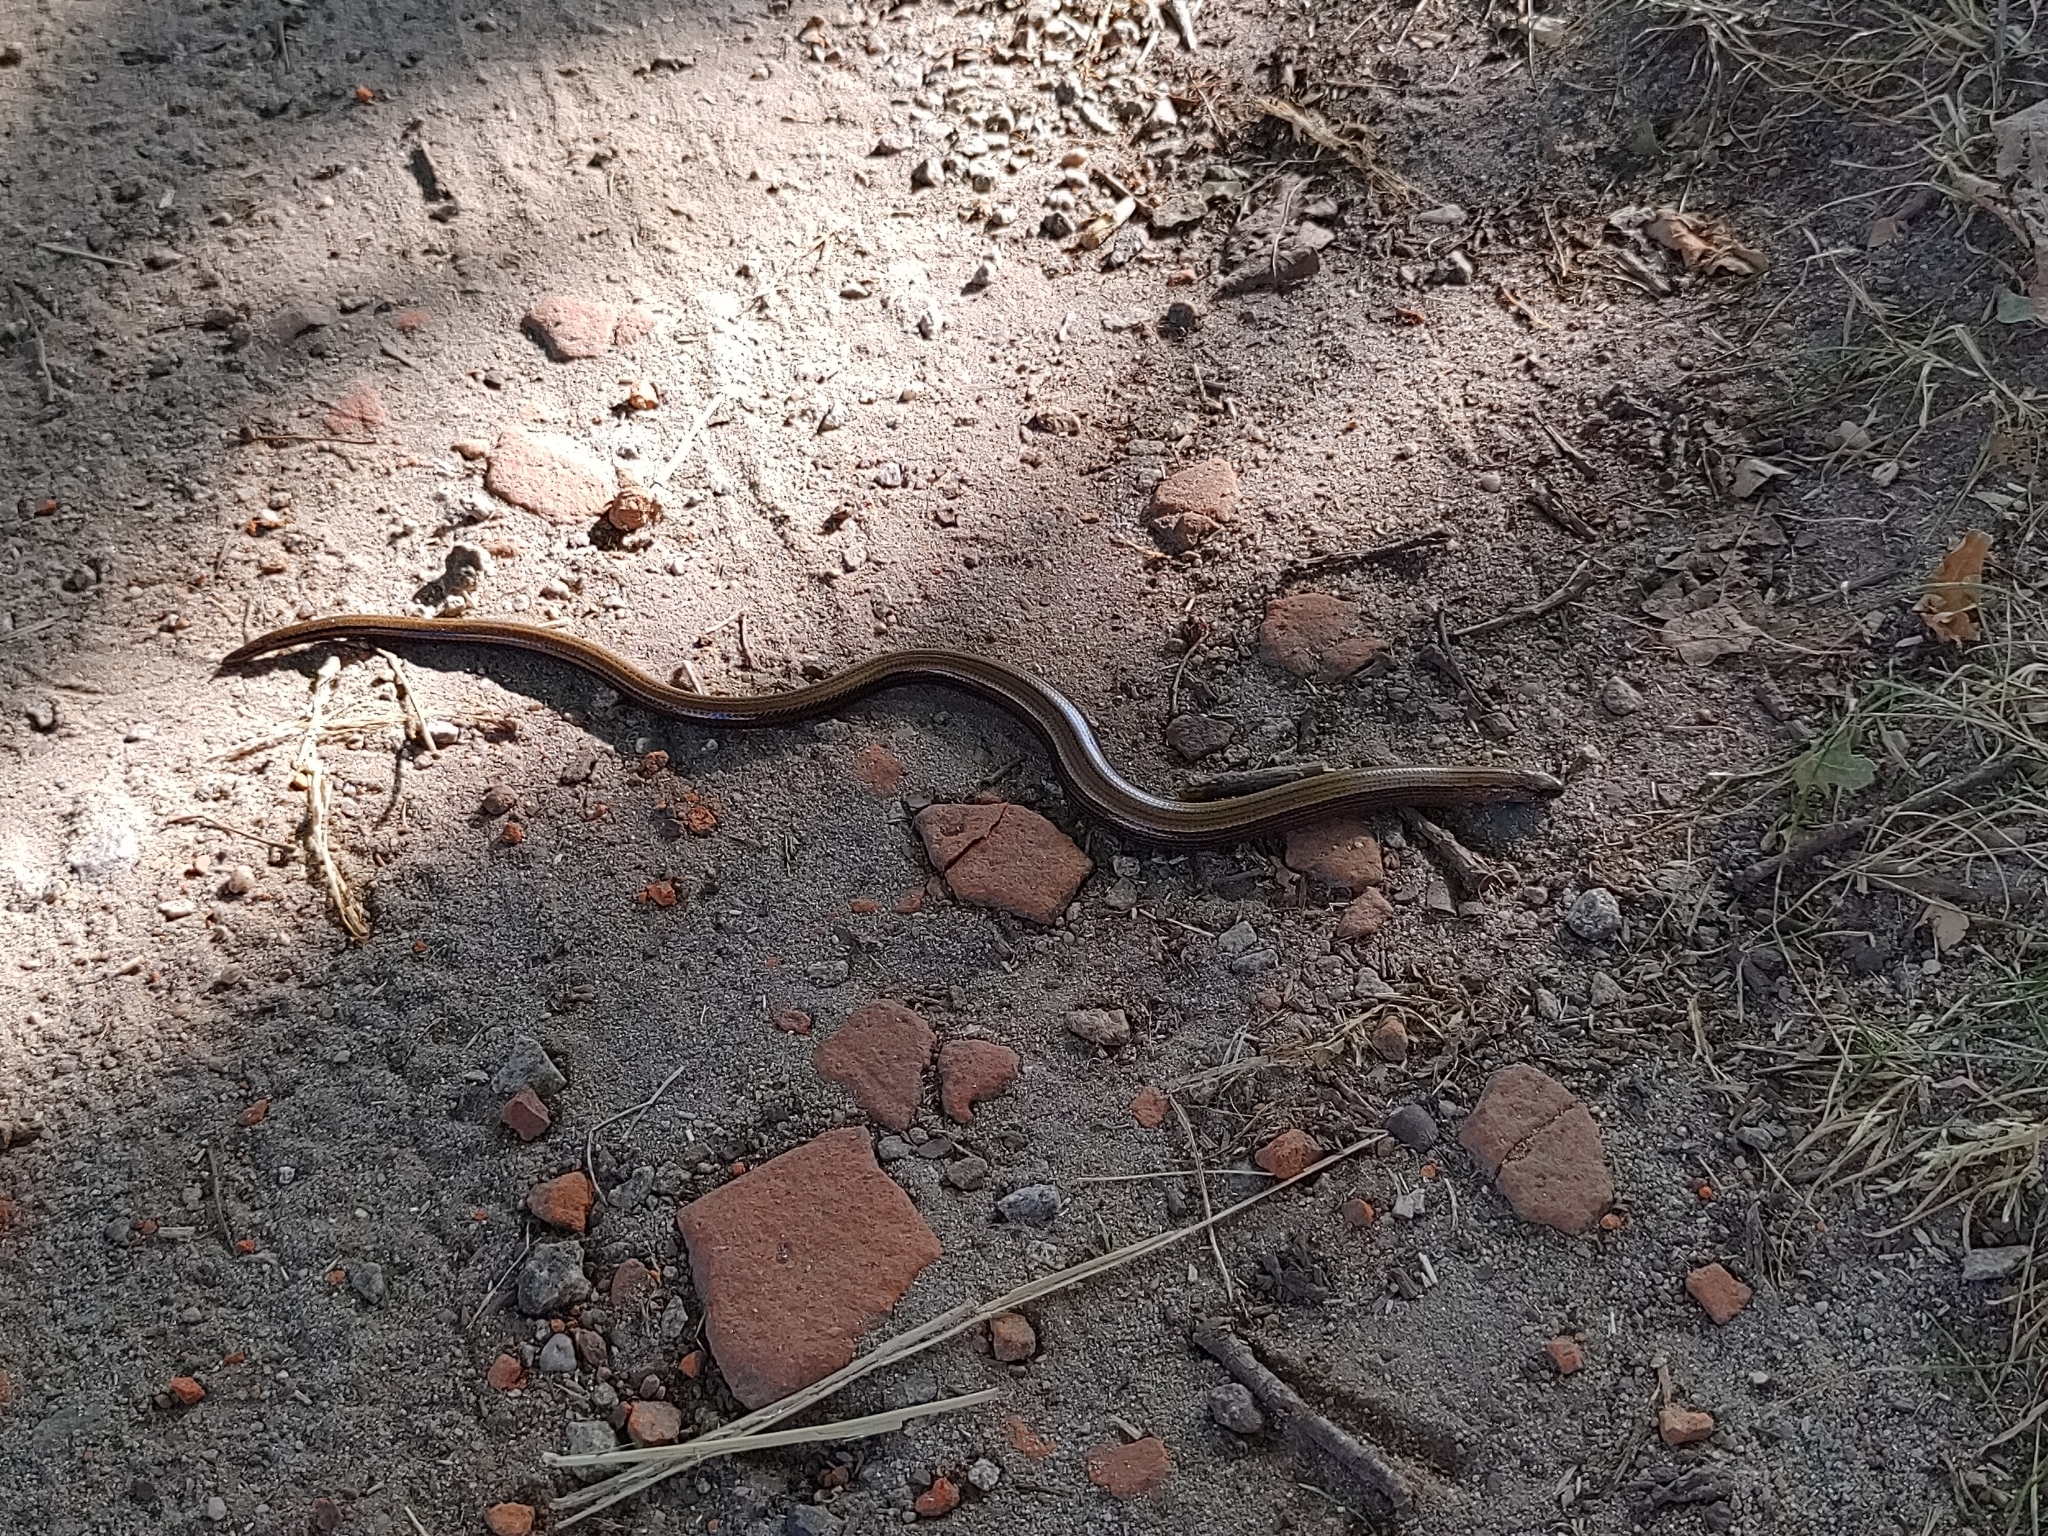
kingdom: Animalia
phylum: Chordata
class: Squamata
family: Anguidae
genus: Anguis
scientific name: Anguis fragilis
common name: Slow worm
